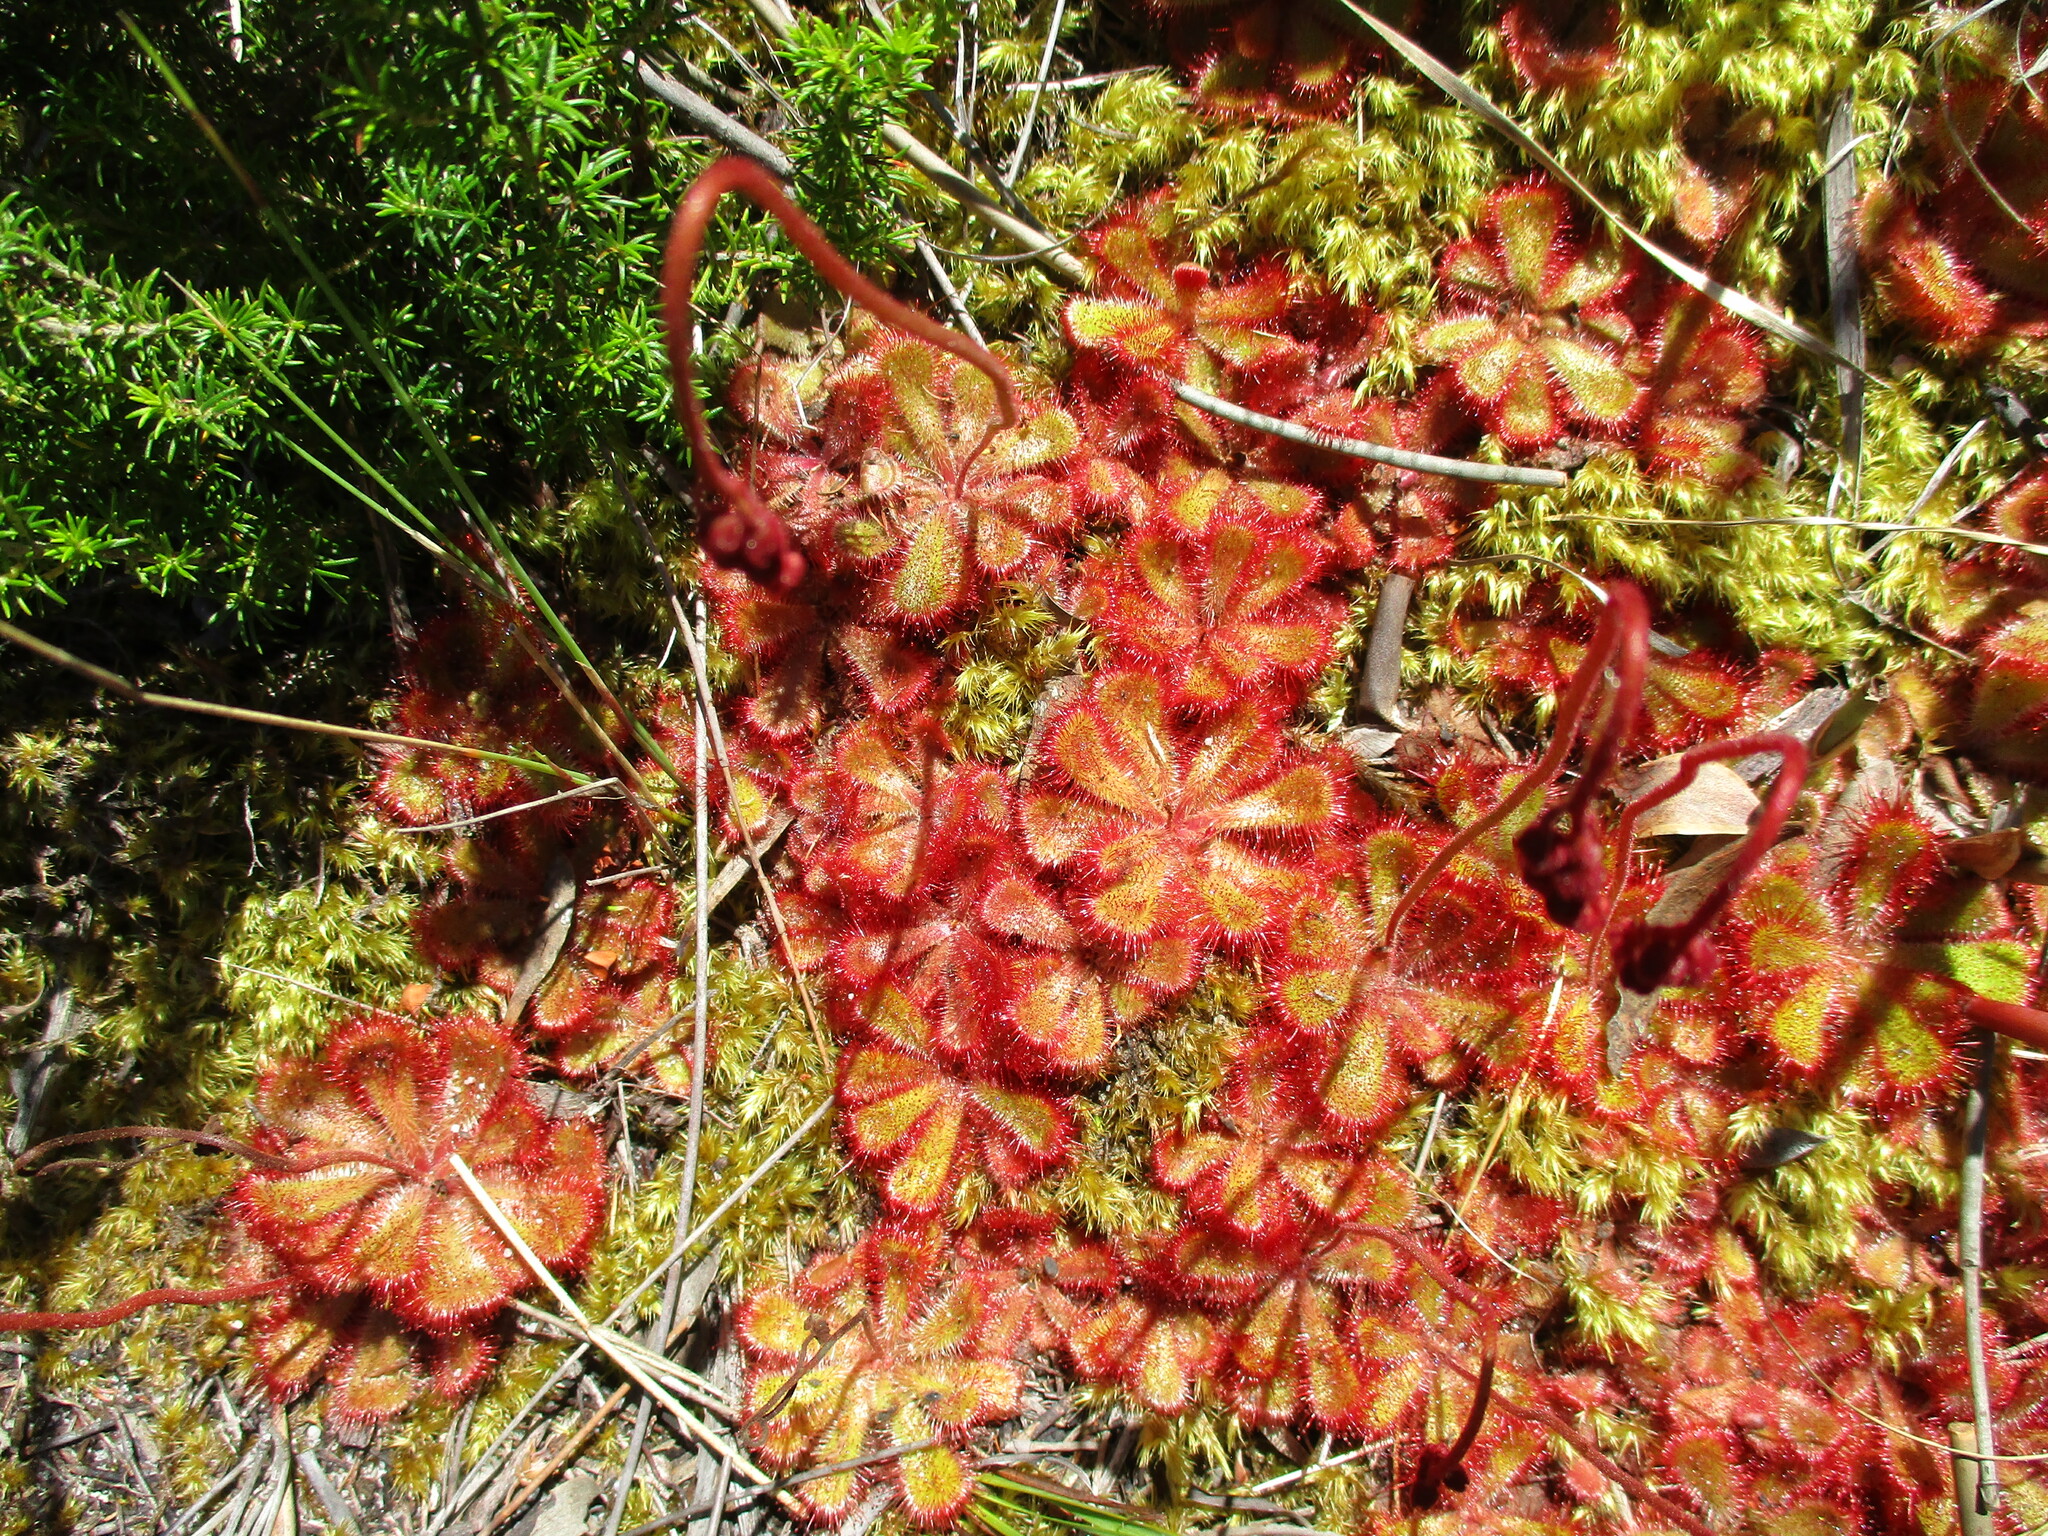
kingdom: Plantae
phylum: Tracheophyta
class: Magnoliopsida
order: Caryophyllales
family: Droseraceae
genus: Drosera
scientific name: Drosera cuneifolia
